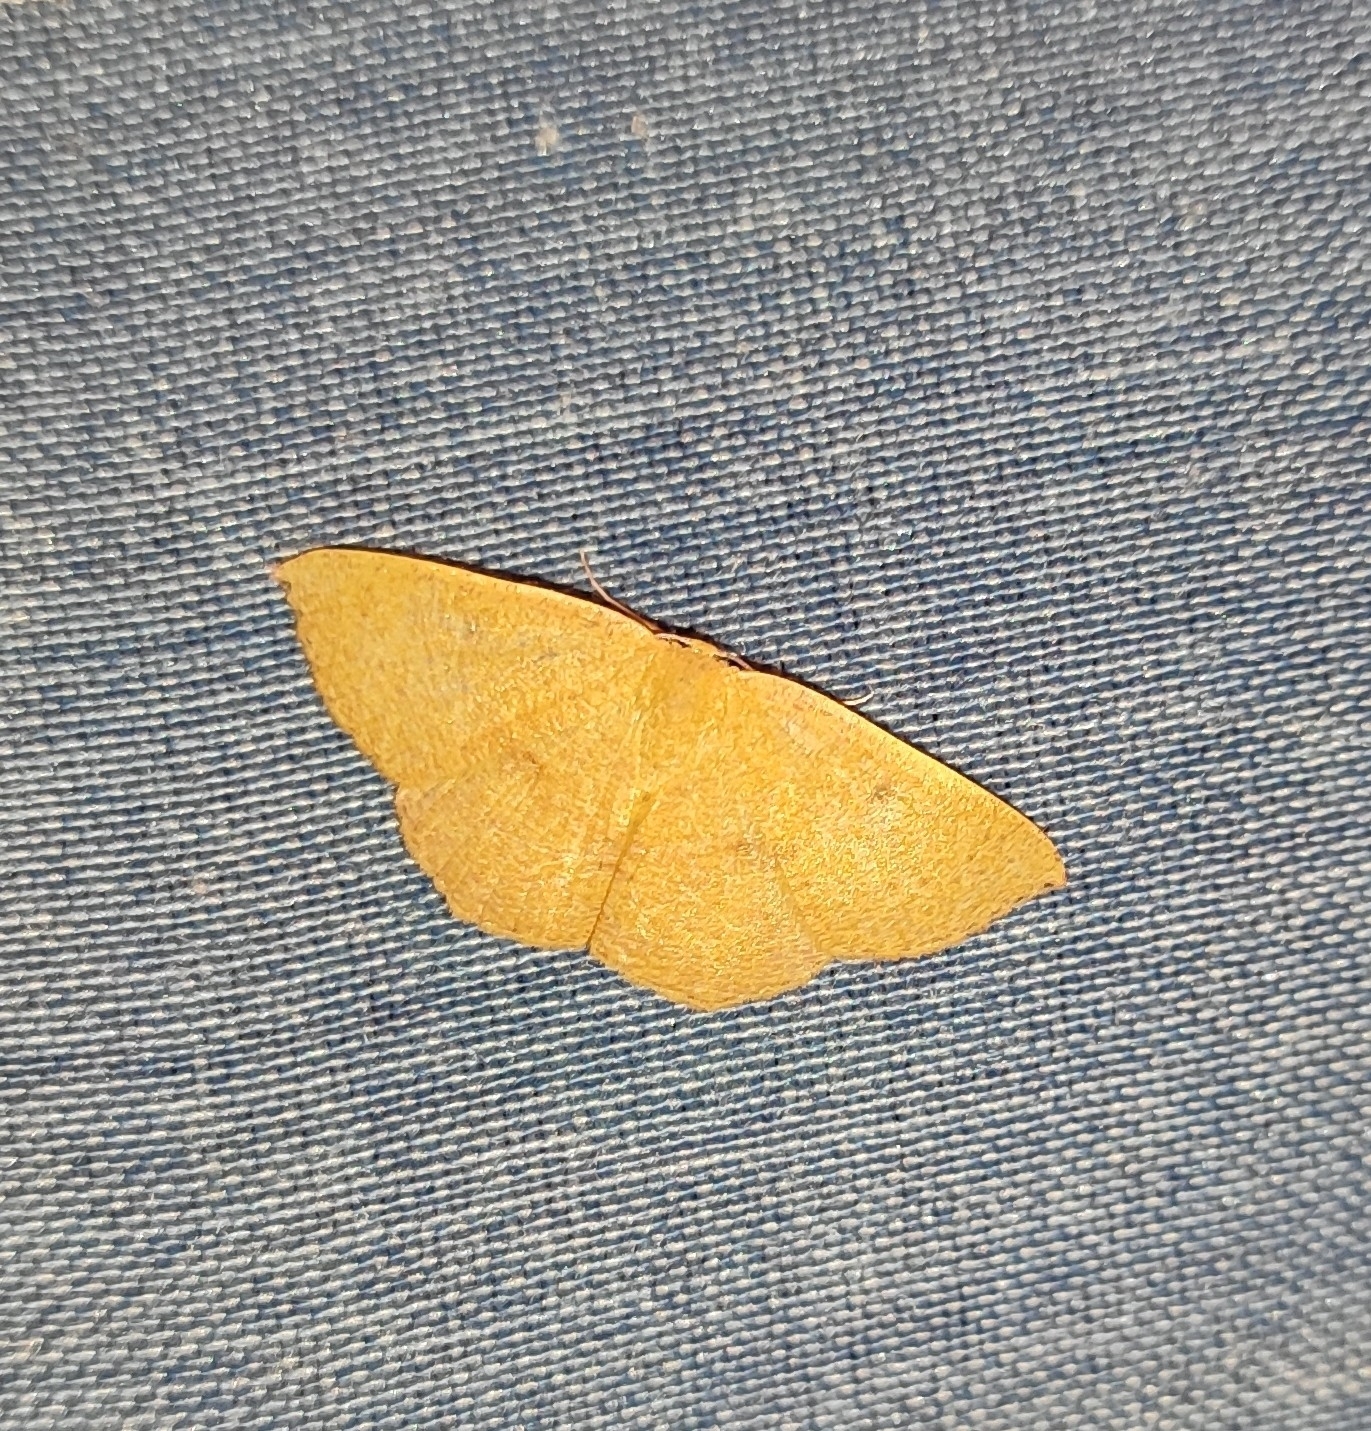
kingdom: Animalia
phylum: Arthropoda
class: Insecta
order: Lepidoptera
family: Geometridae
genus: Cyclophora
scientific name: Cyclophora puppillaria
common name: Blair's mocha
